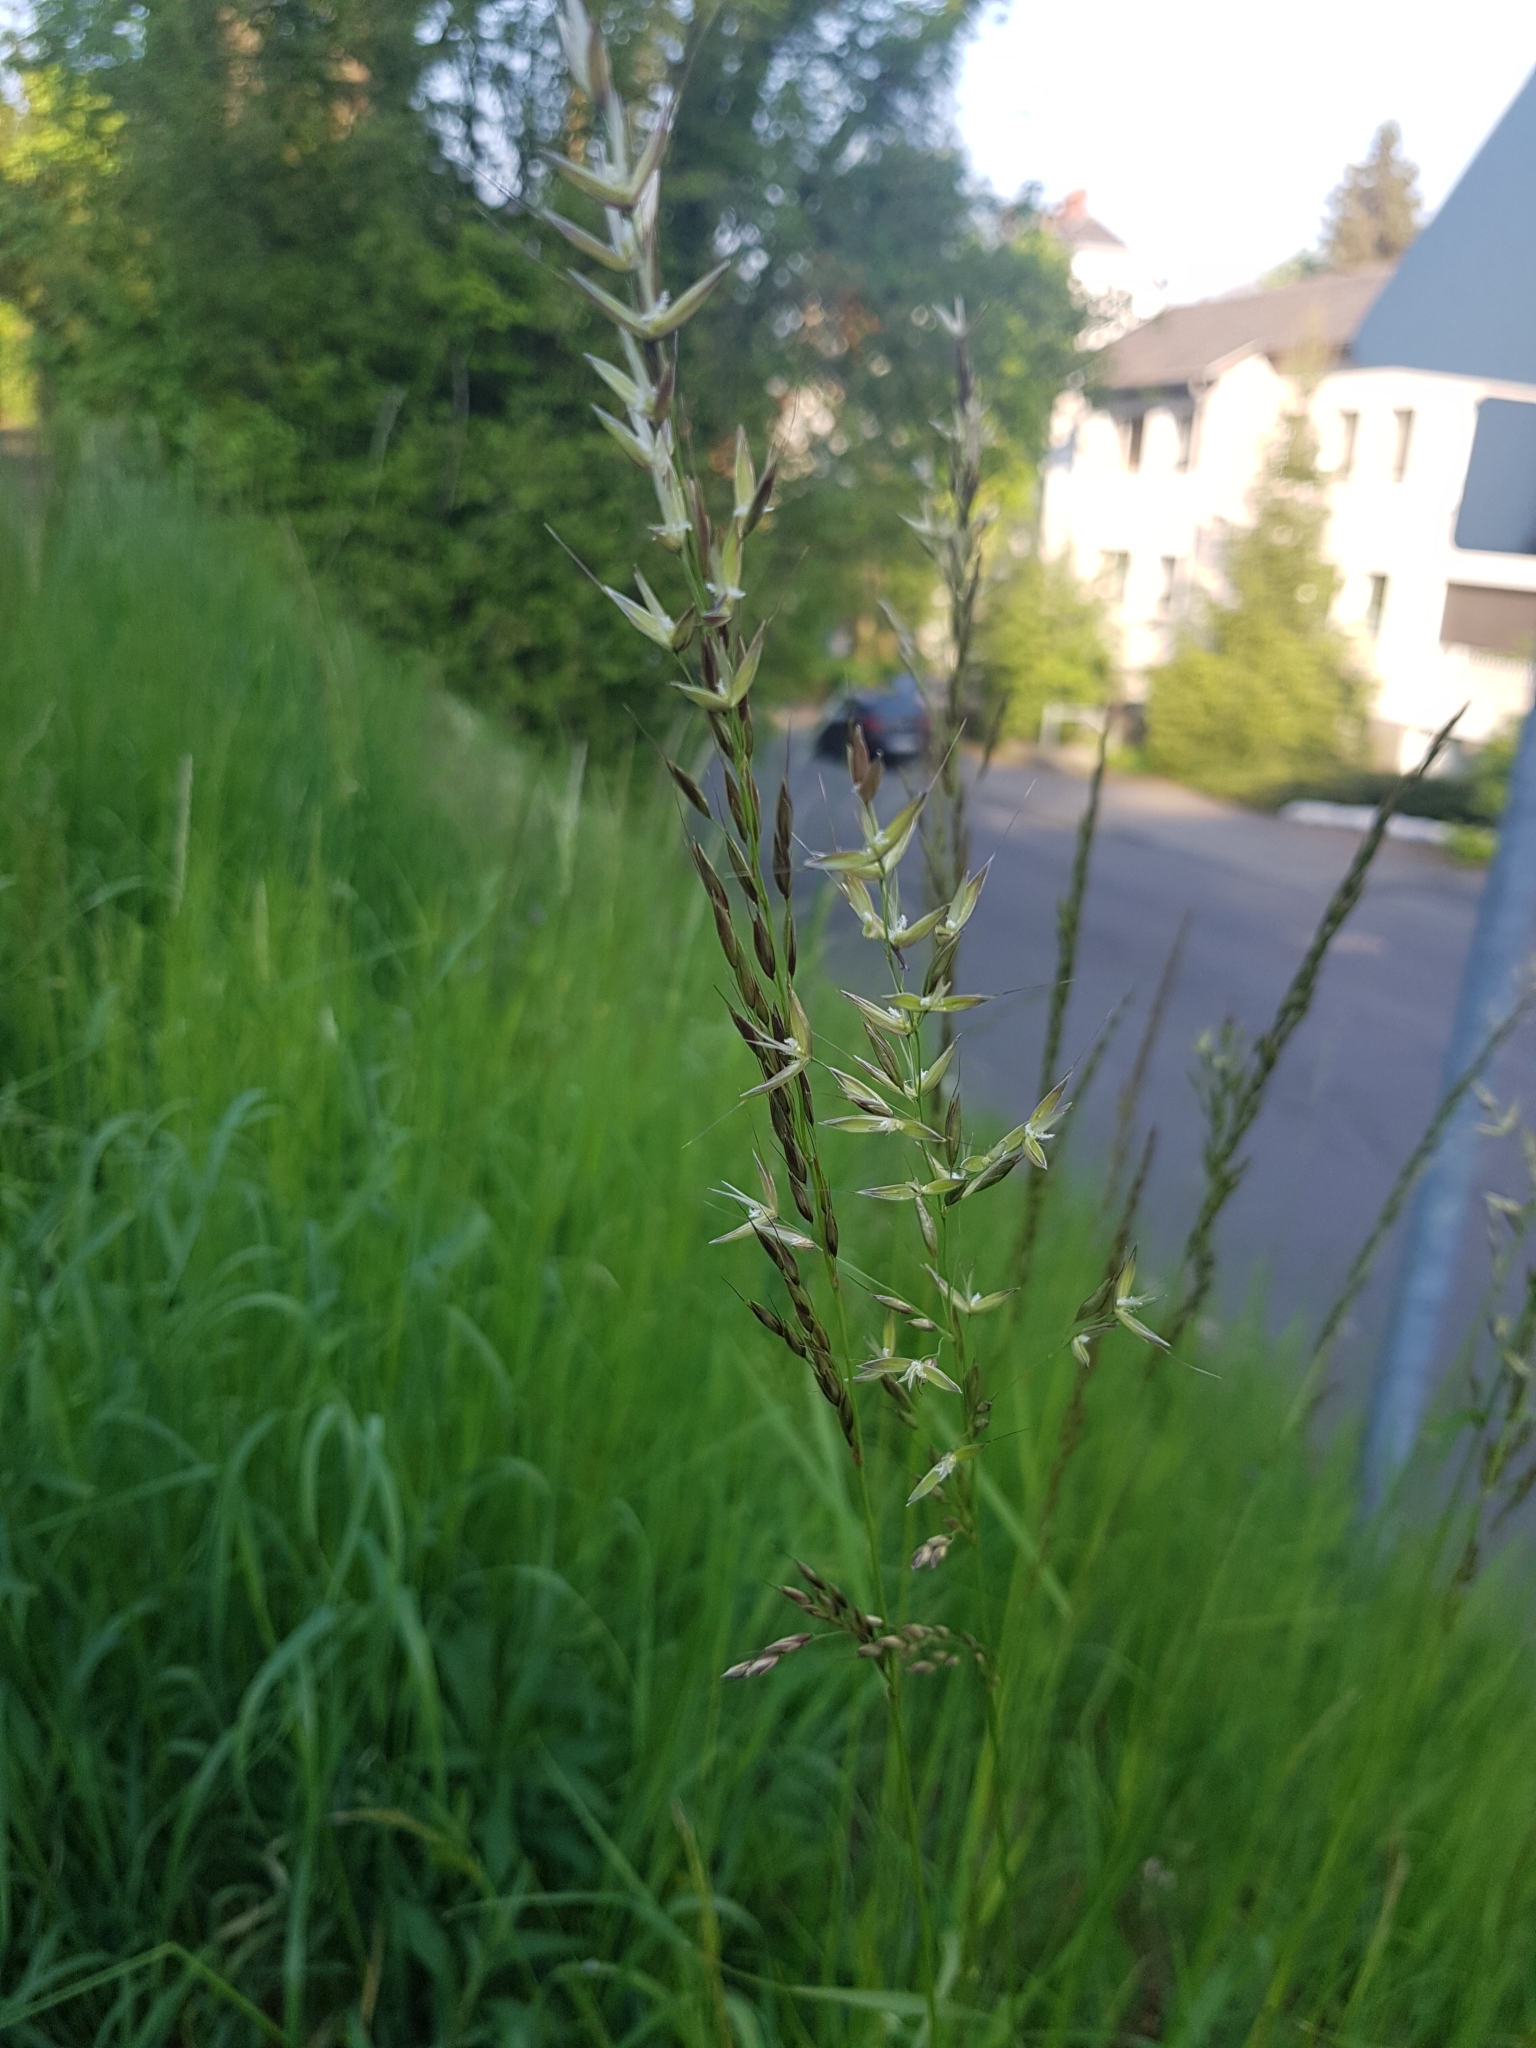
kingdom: Plantae
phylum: Tracheophyta
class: Liliopsida
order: Poales
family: Poaceae
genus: Arrhenatherum
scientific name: Arrhenatherum elatius
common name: Tall oatgrass
